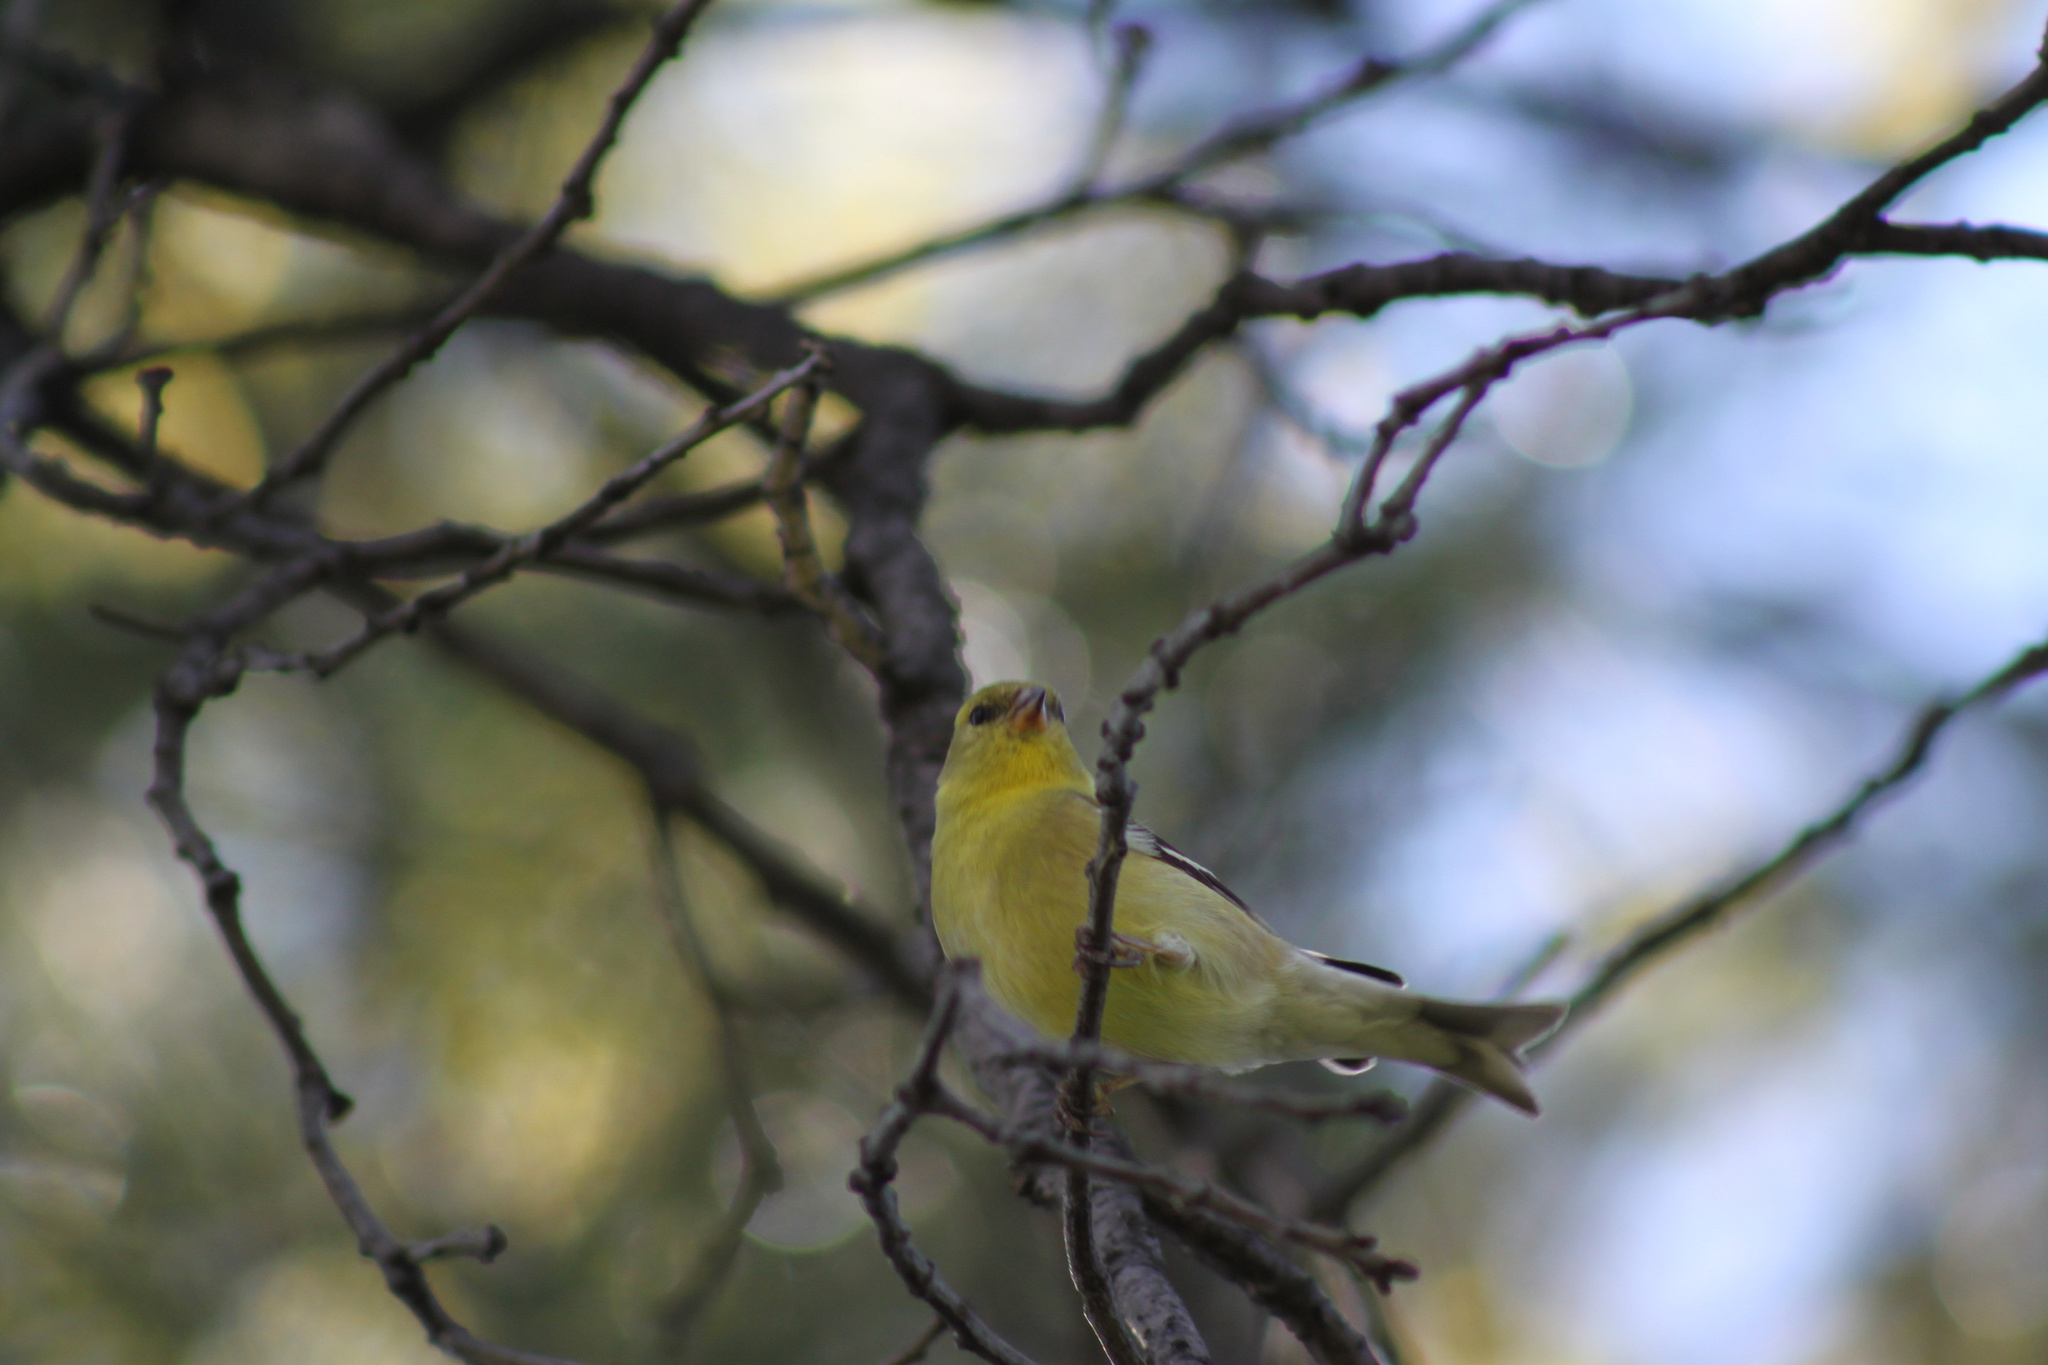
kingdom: Animalia
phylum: Chordata
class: Aves
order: Passeriformes
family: Fringillidae
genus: Spinus
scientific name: Spinus tristis
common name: American goldfinch
